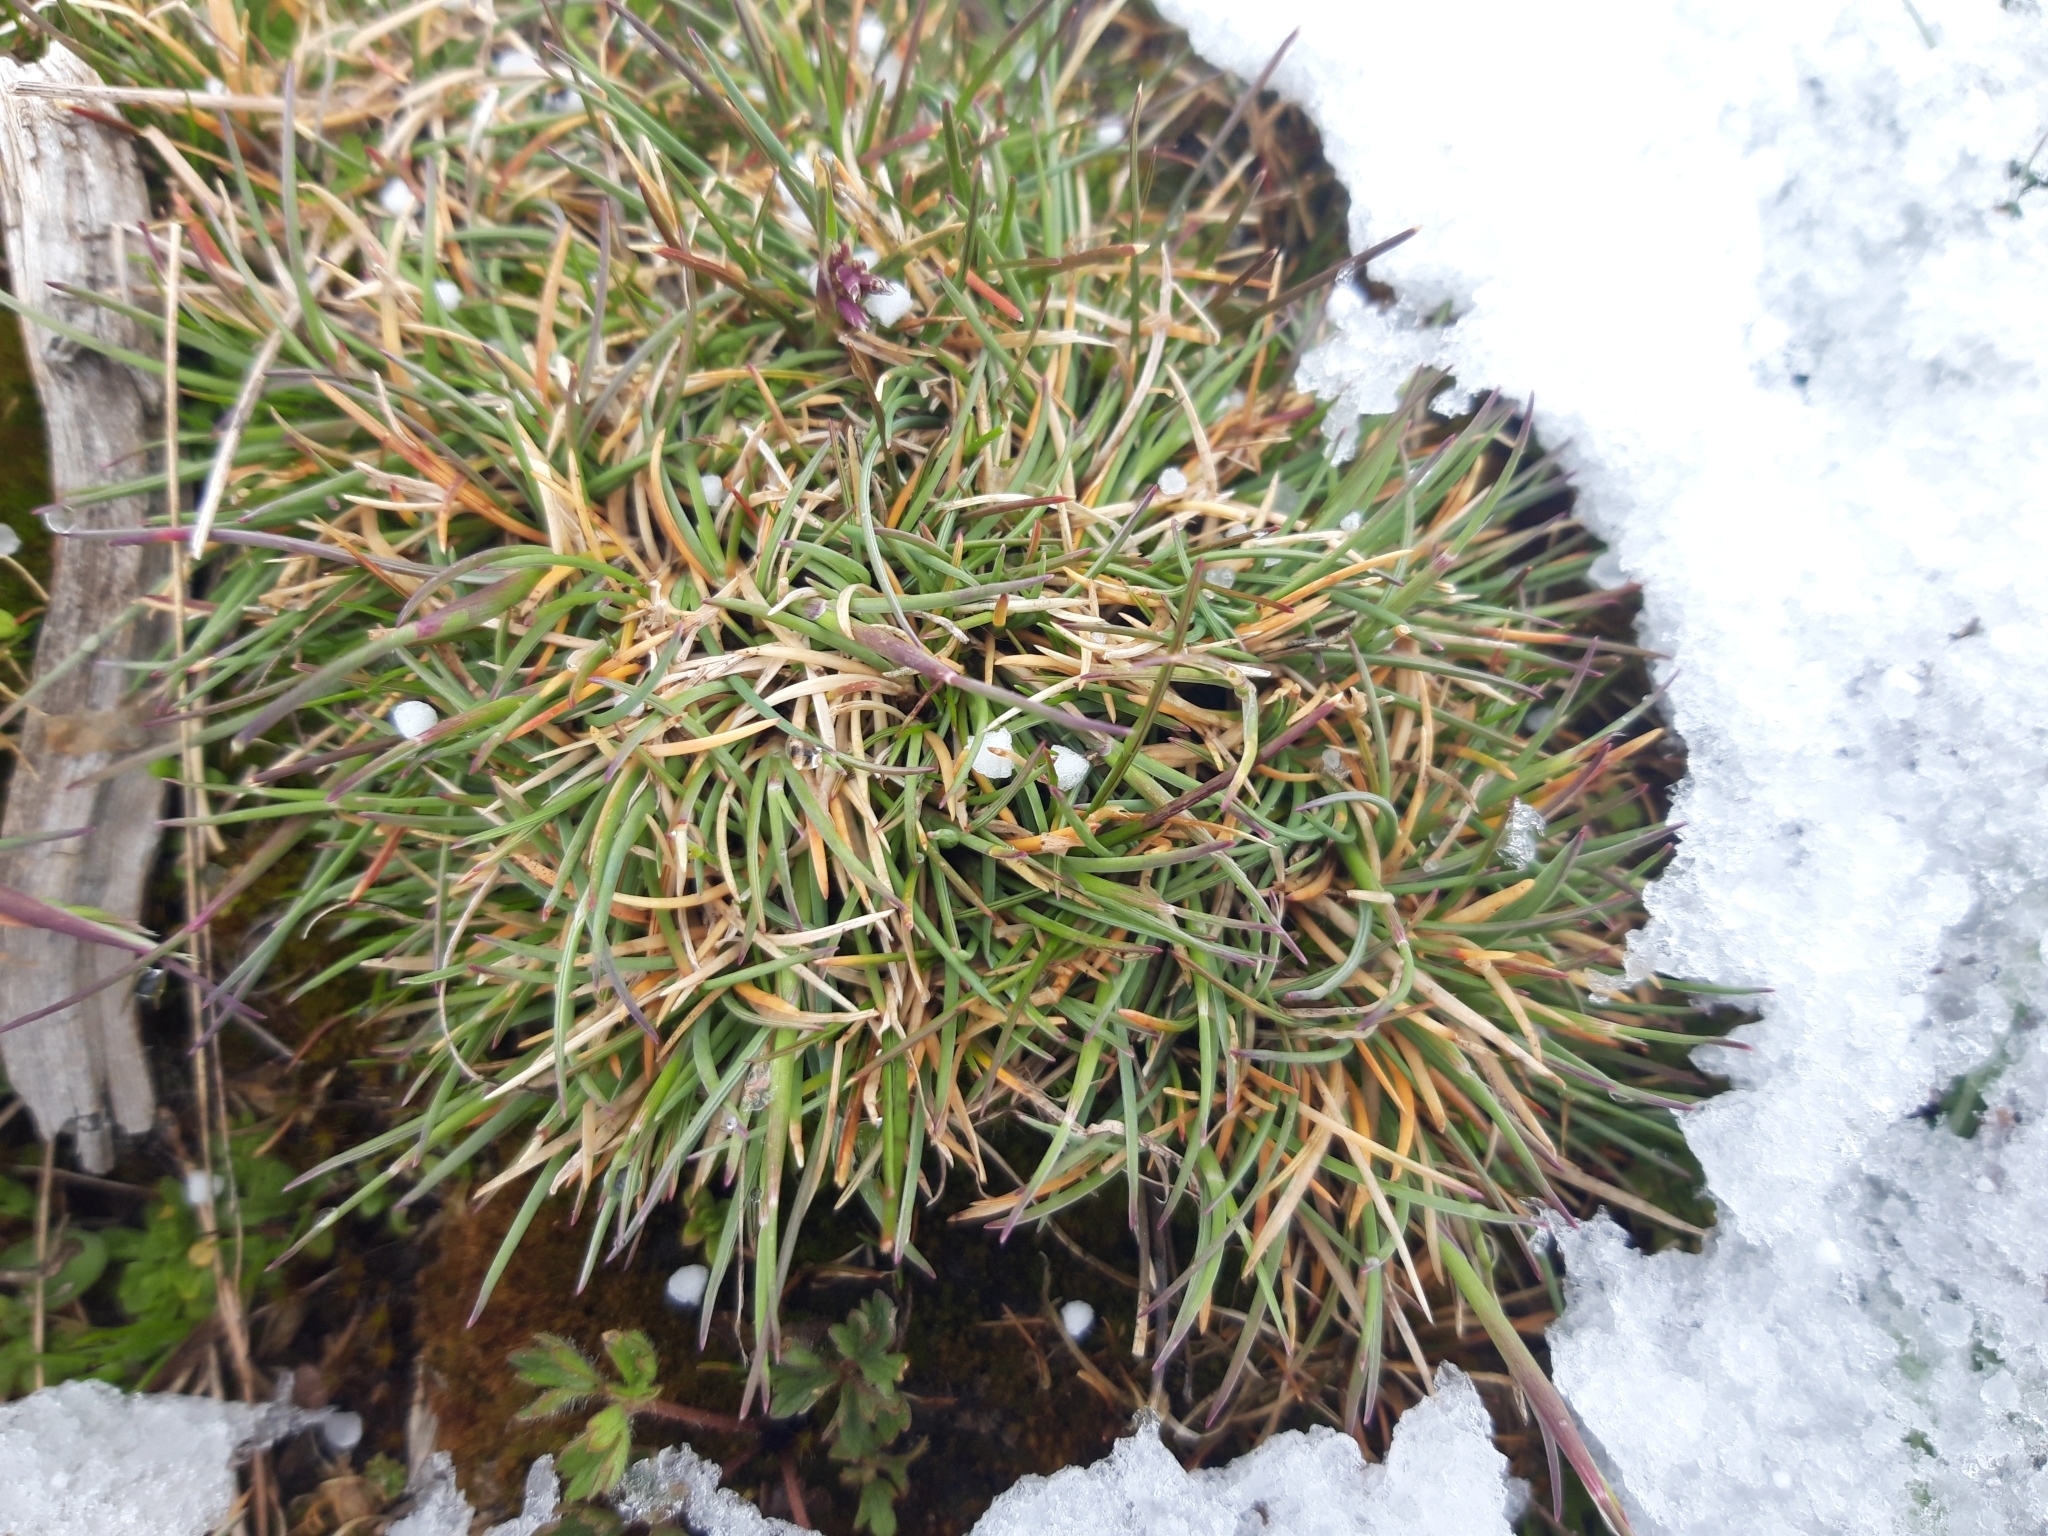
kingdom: Plantae
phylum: Tracheophyta
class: Liliopsida
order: Poales
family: Poaceae
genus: Festuca
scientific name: Festuca indigesta
